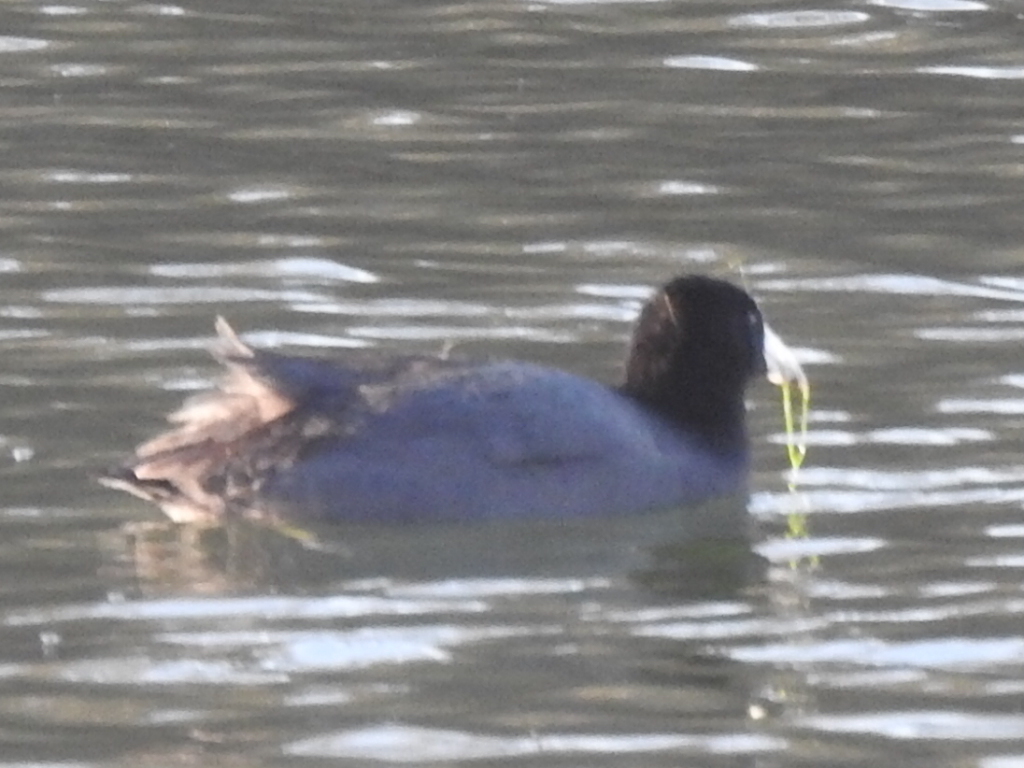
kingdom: Animalia
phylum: Chordata
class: Aves
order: Gruiformes
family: Rallidae
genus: Fulica
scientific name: Fulica americana
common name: American coot
